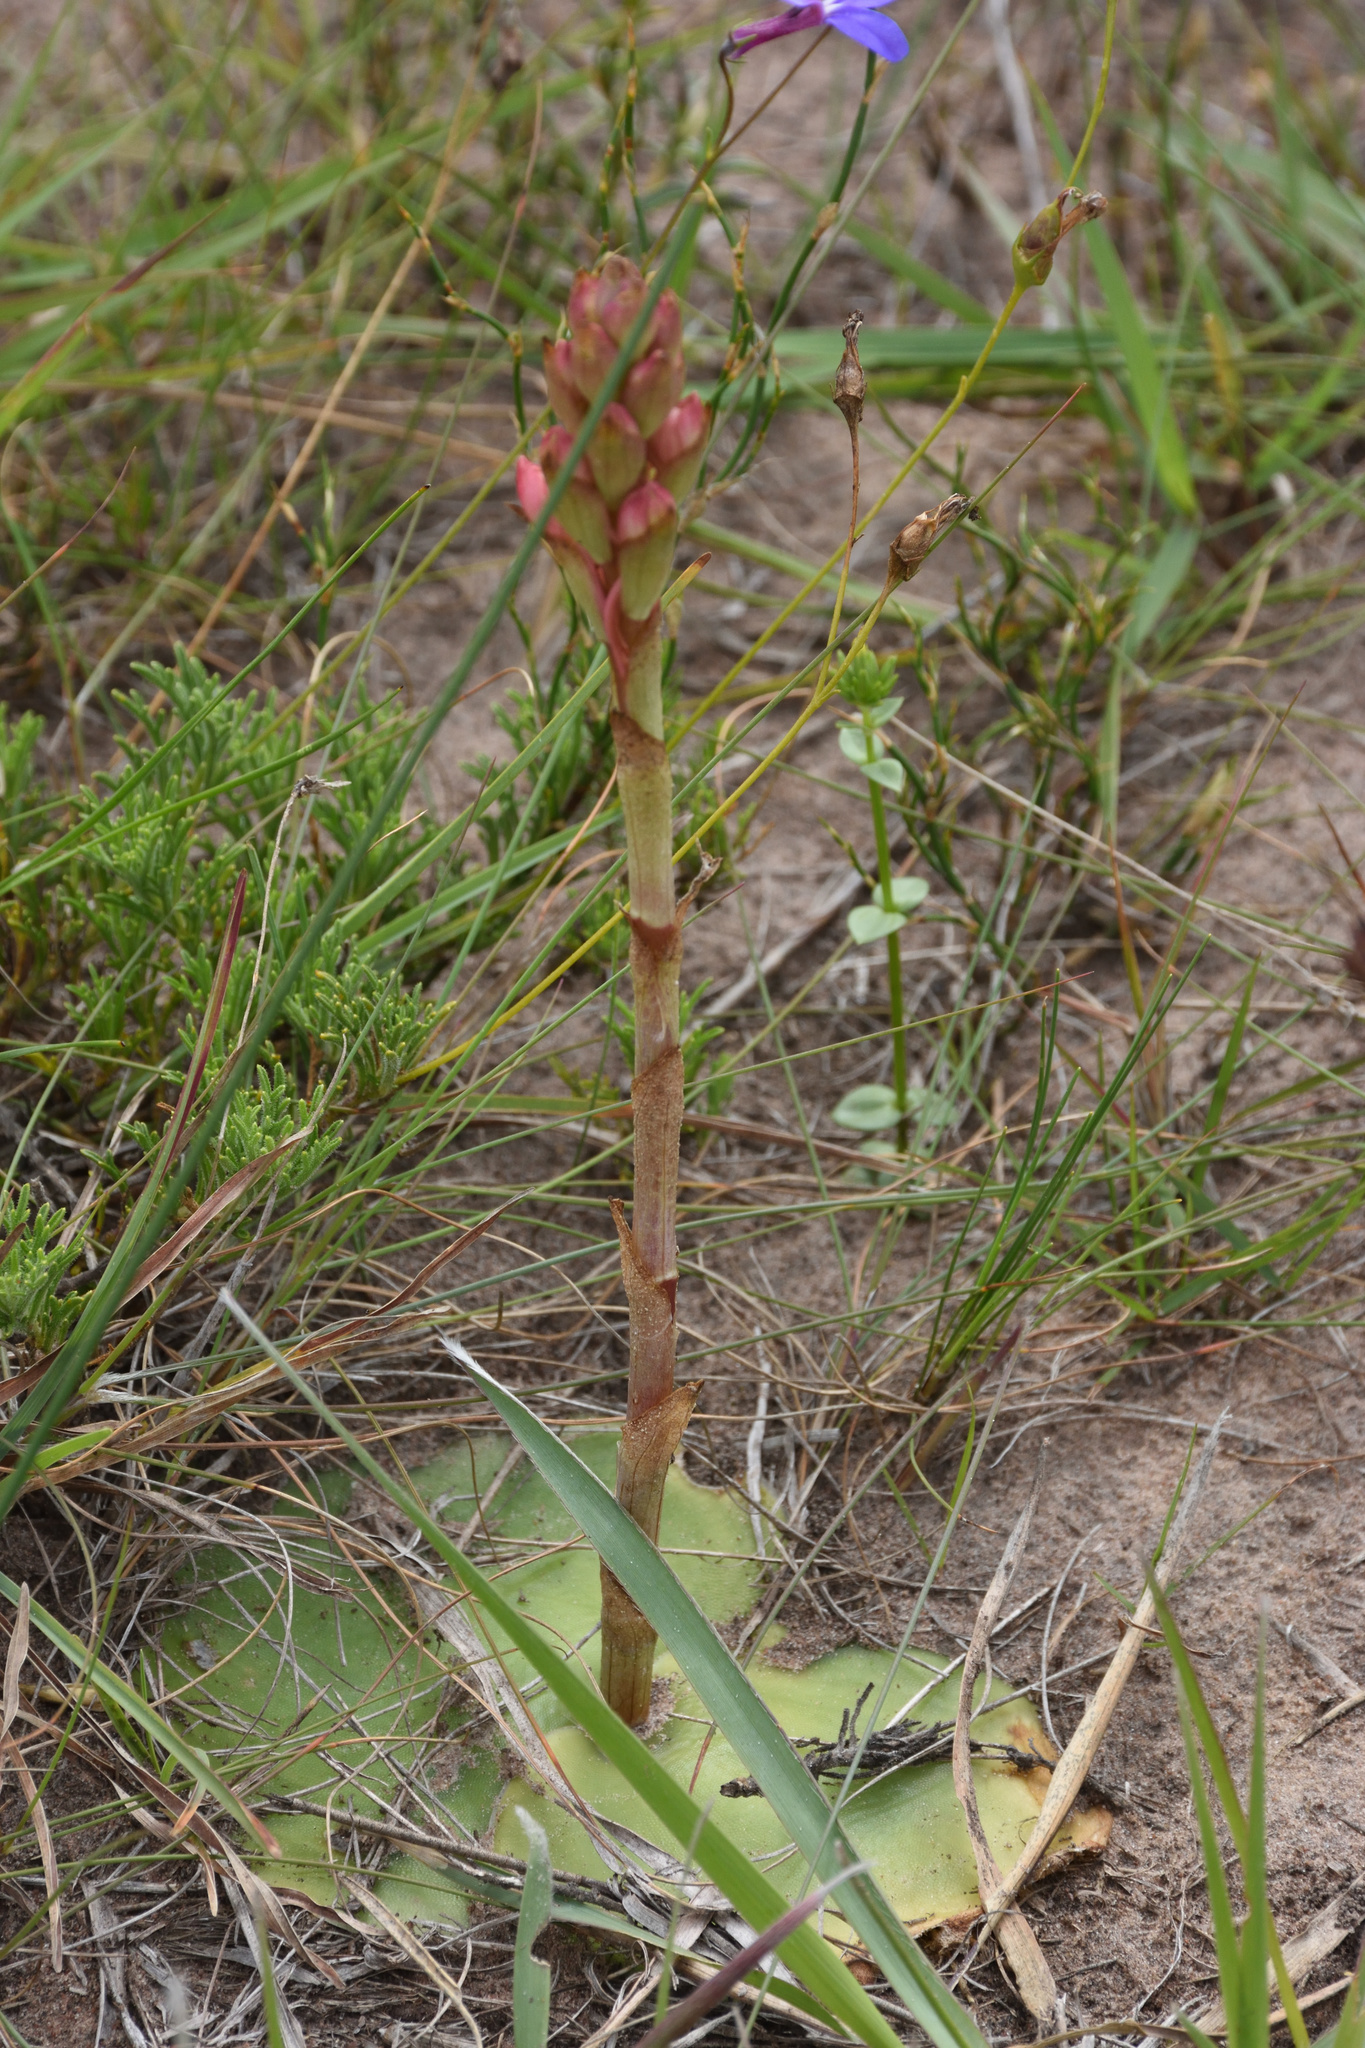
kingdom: Plantae
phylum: Tracheophyta
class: Liliopsida
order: Asparagales
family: Orchidaceae
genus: Satyrium
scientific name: Satyrium membranaceum
